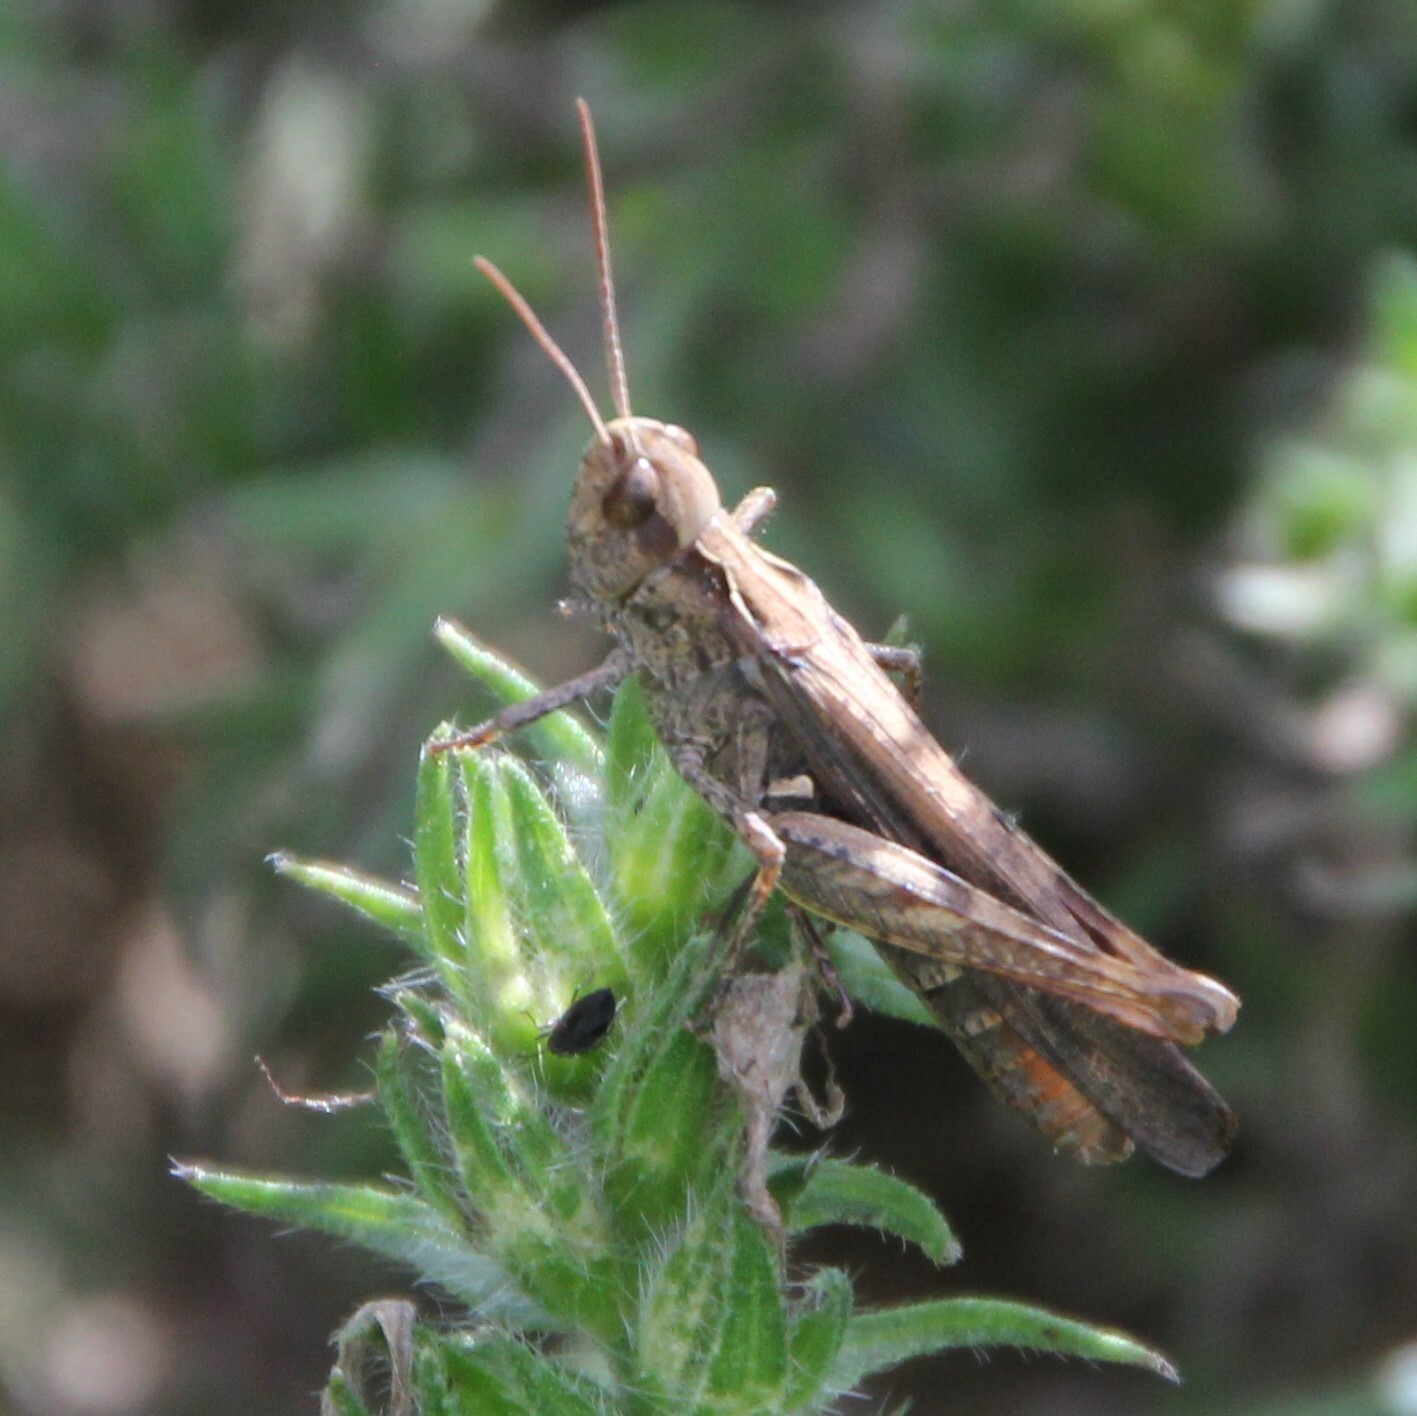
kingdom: Animalia
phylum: Arthropoda
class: Insecta
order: Orthoptera
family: Acrididae
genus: Chorthippus
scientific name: Chorthippus brunneus
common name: Field grasshopper
